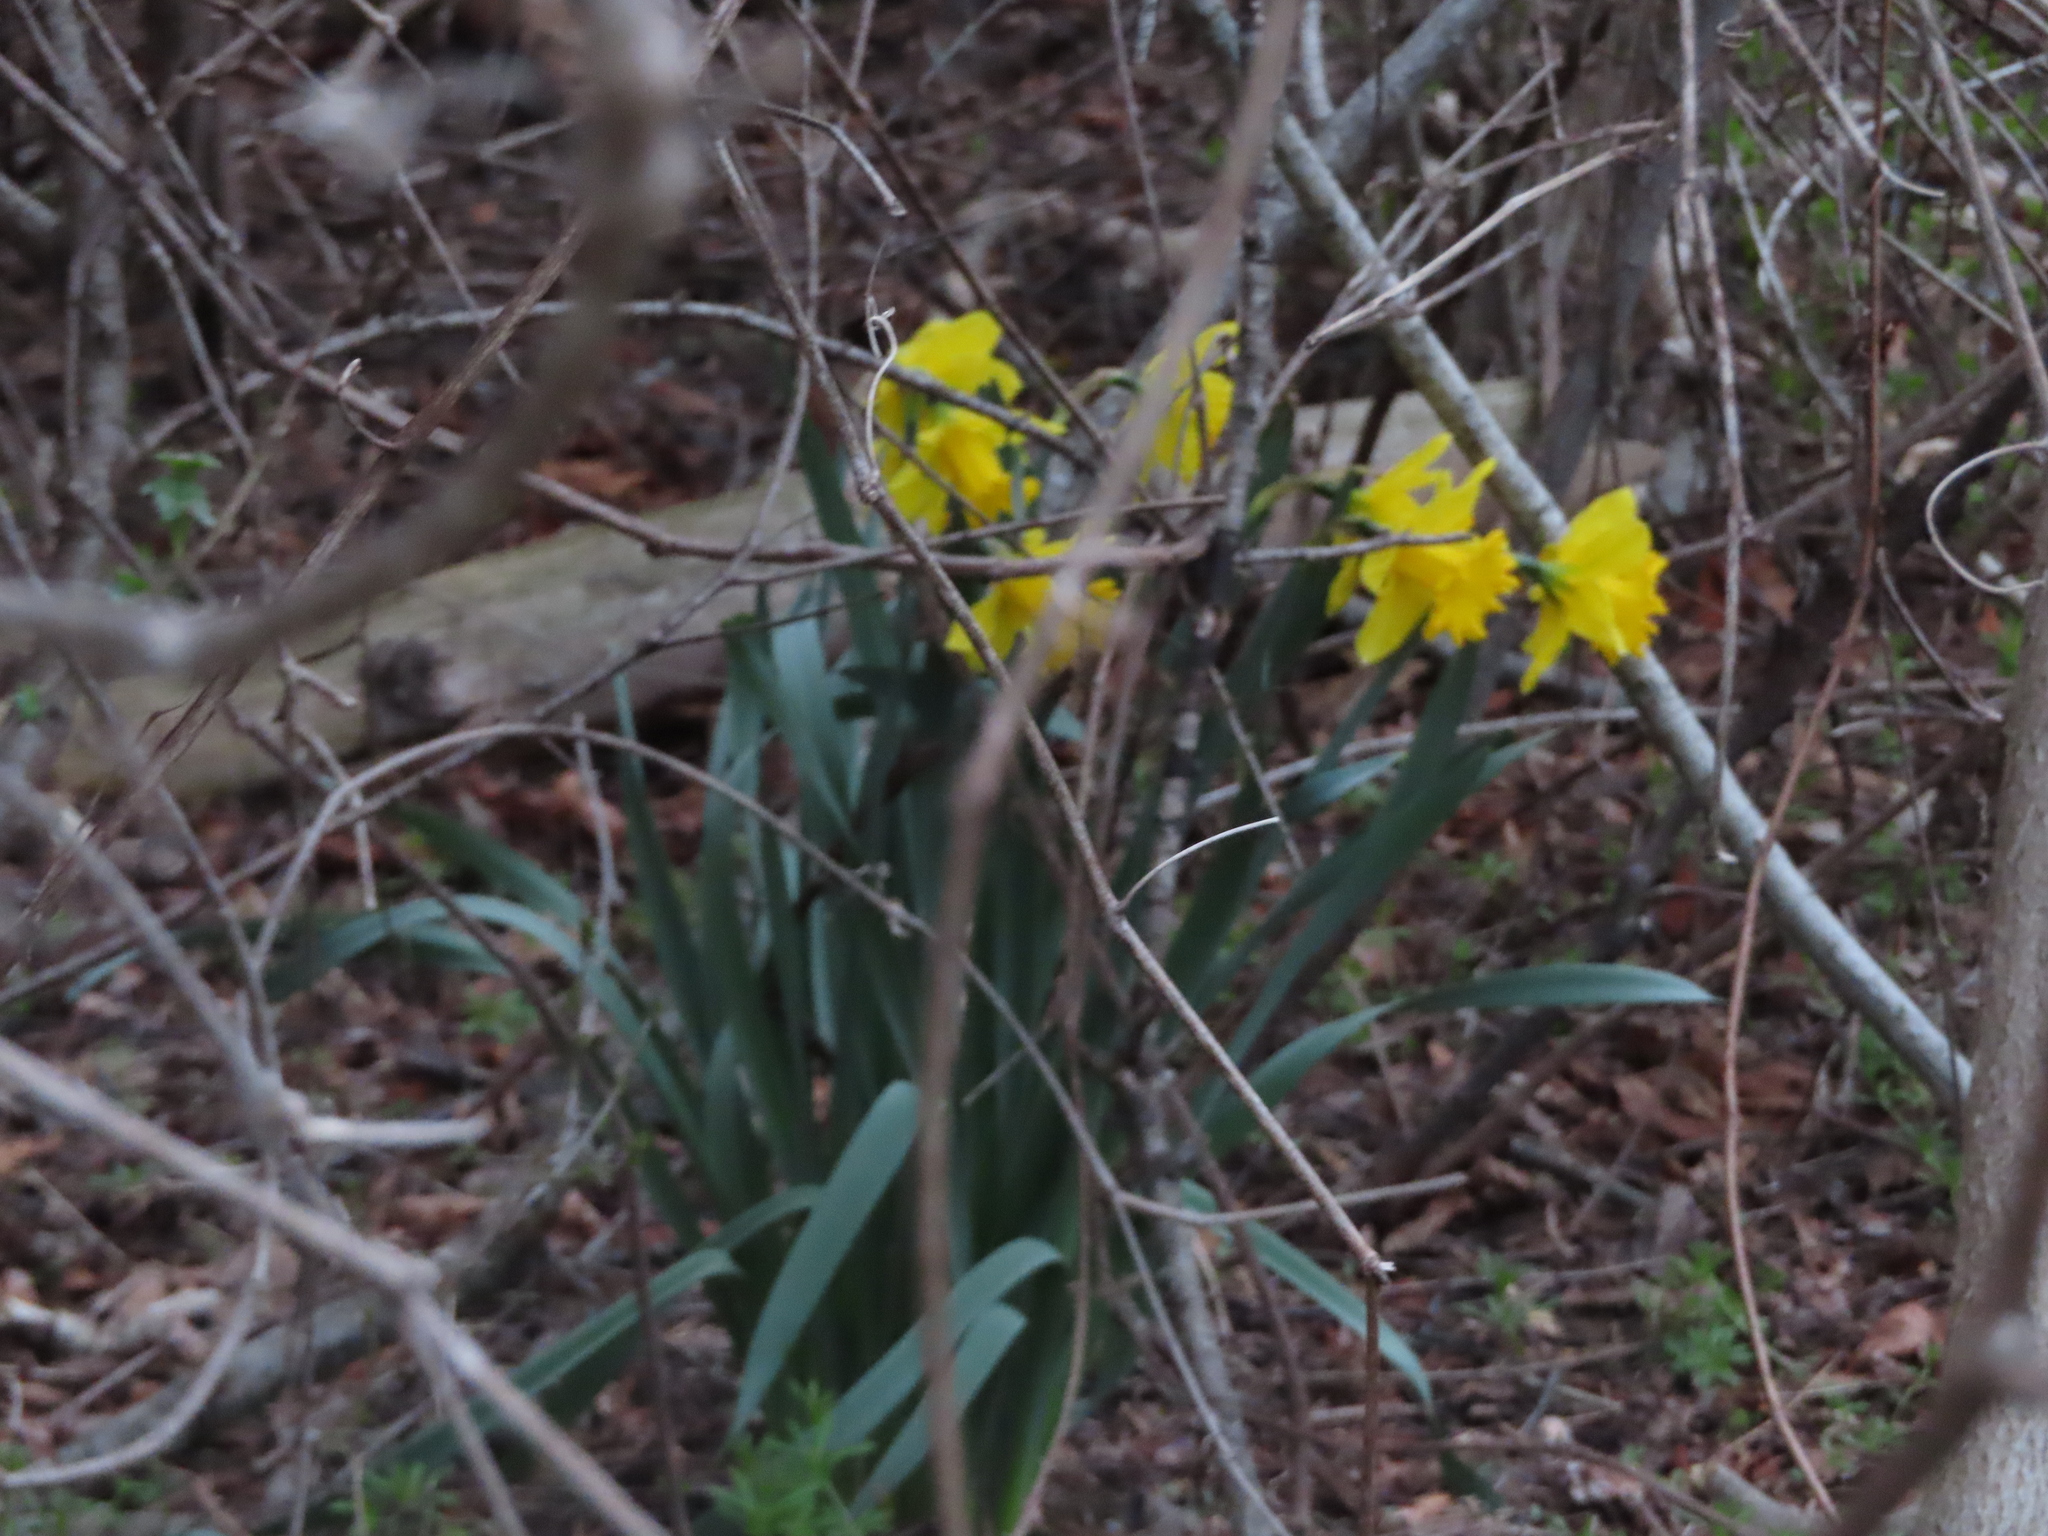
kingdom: Plantae
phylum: Tracheophyta
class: Liliopsida
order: Asparagales
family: Amaryllidaceae
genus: Narcissus
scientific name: Narcissus pseudonarcissus
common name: Daffodil
